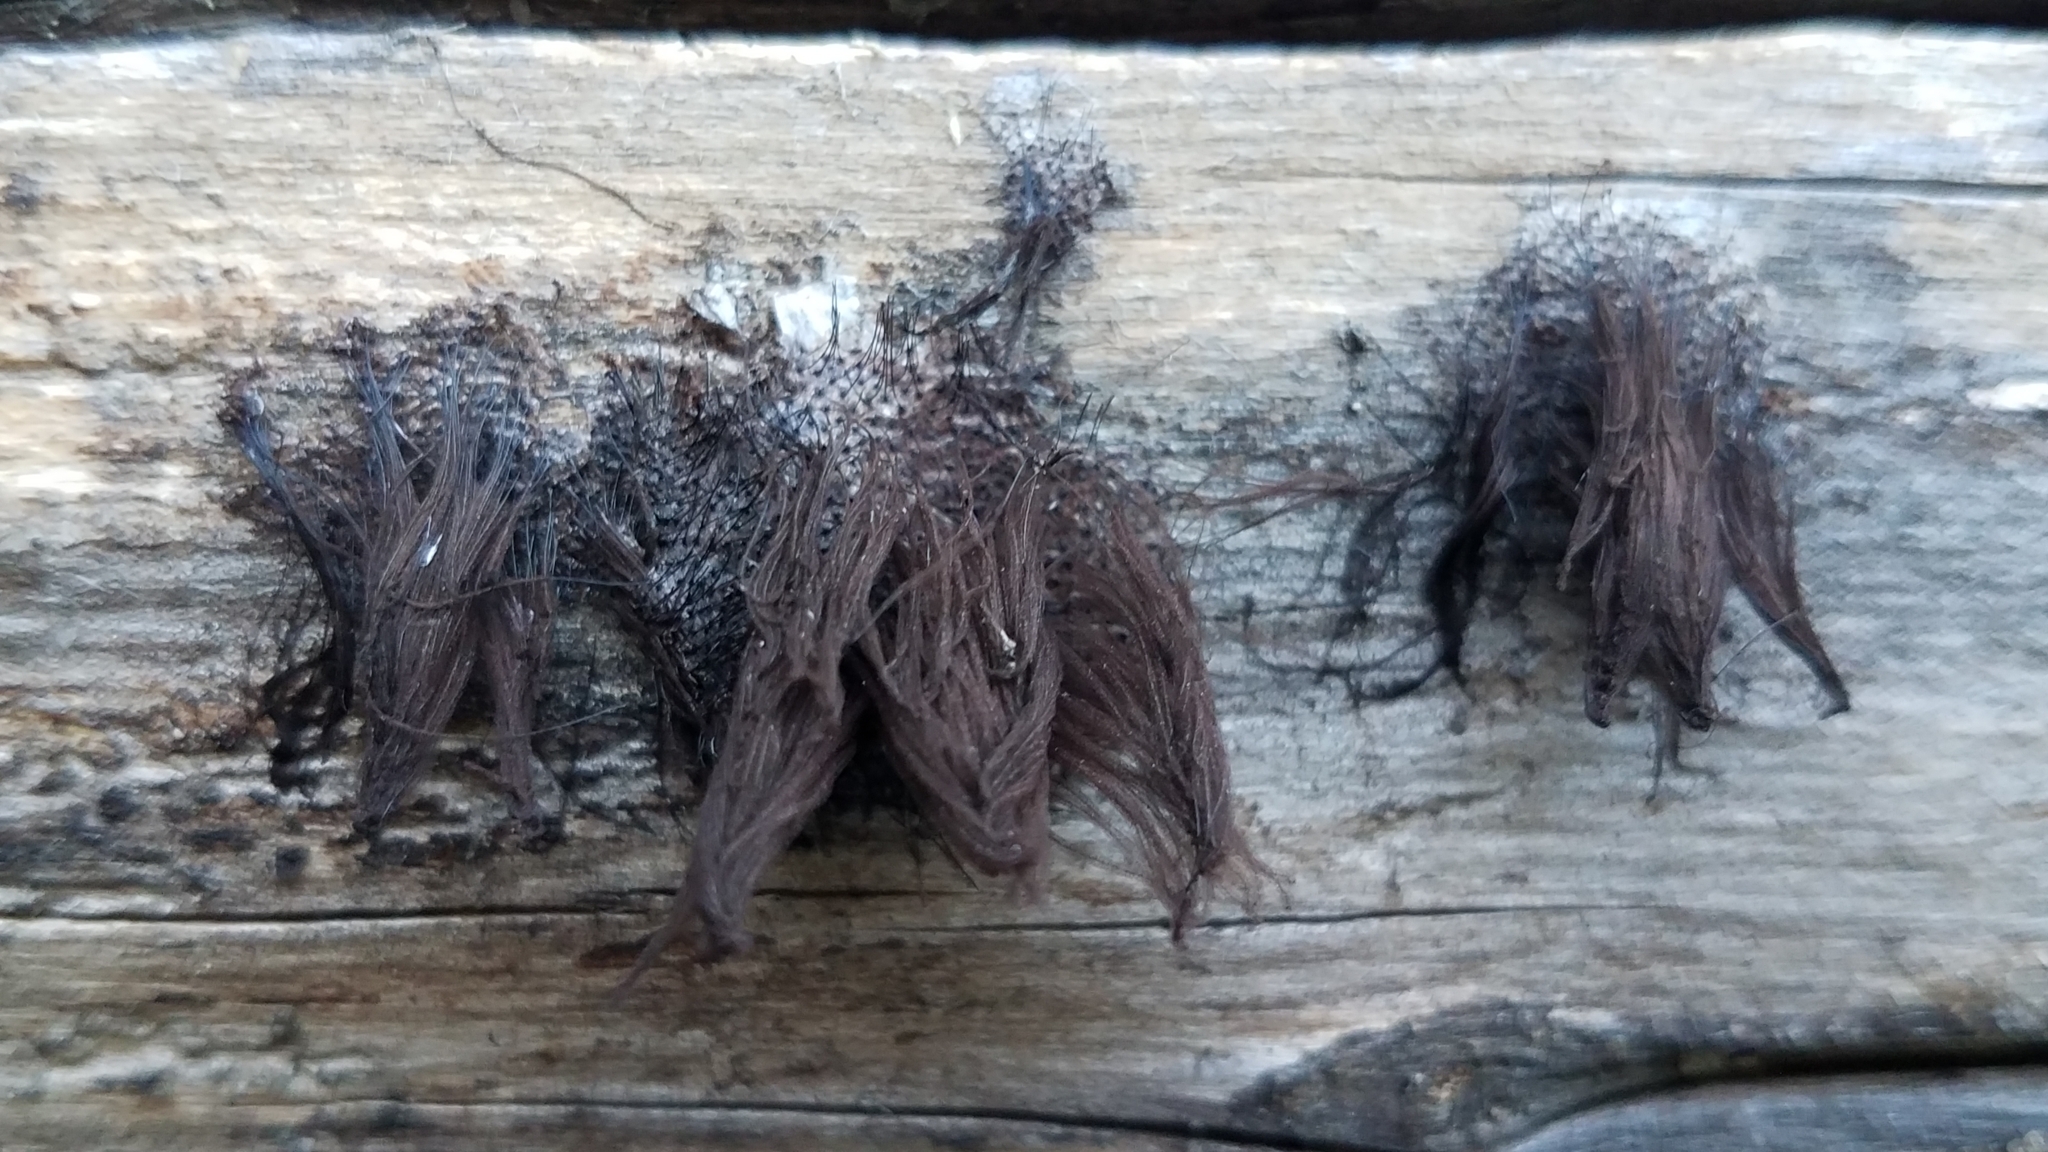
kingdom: Protozoa
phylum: Mycetozoa
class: Myxomycetes
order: Stemonitidales
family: Stemonitidaceae
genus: Stemonitis
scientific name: Stemonitis splendens
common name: Chocolate tube slime
